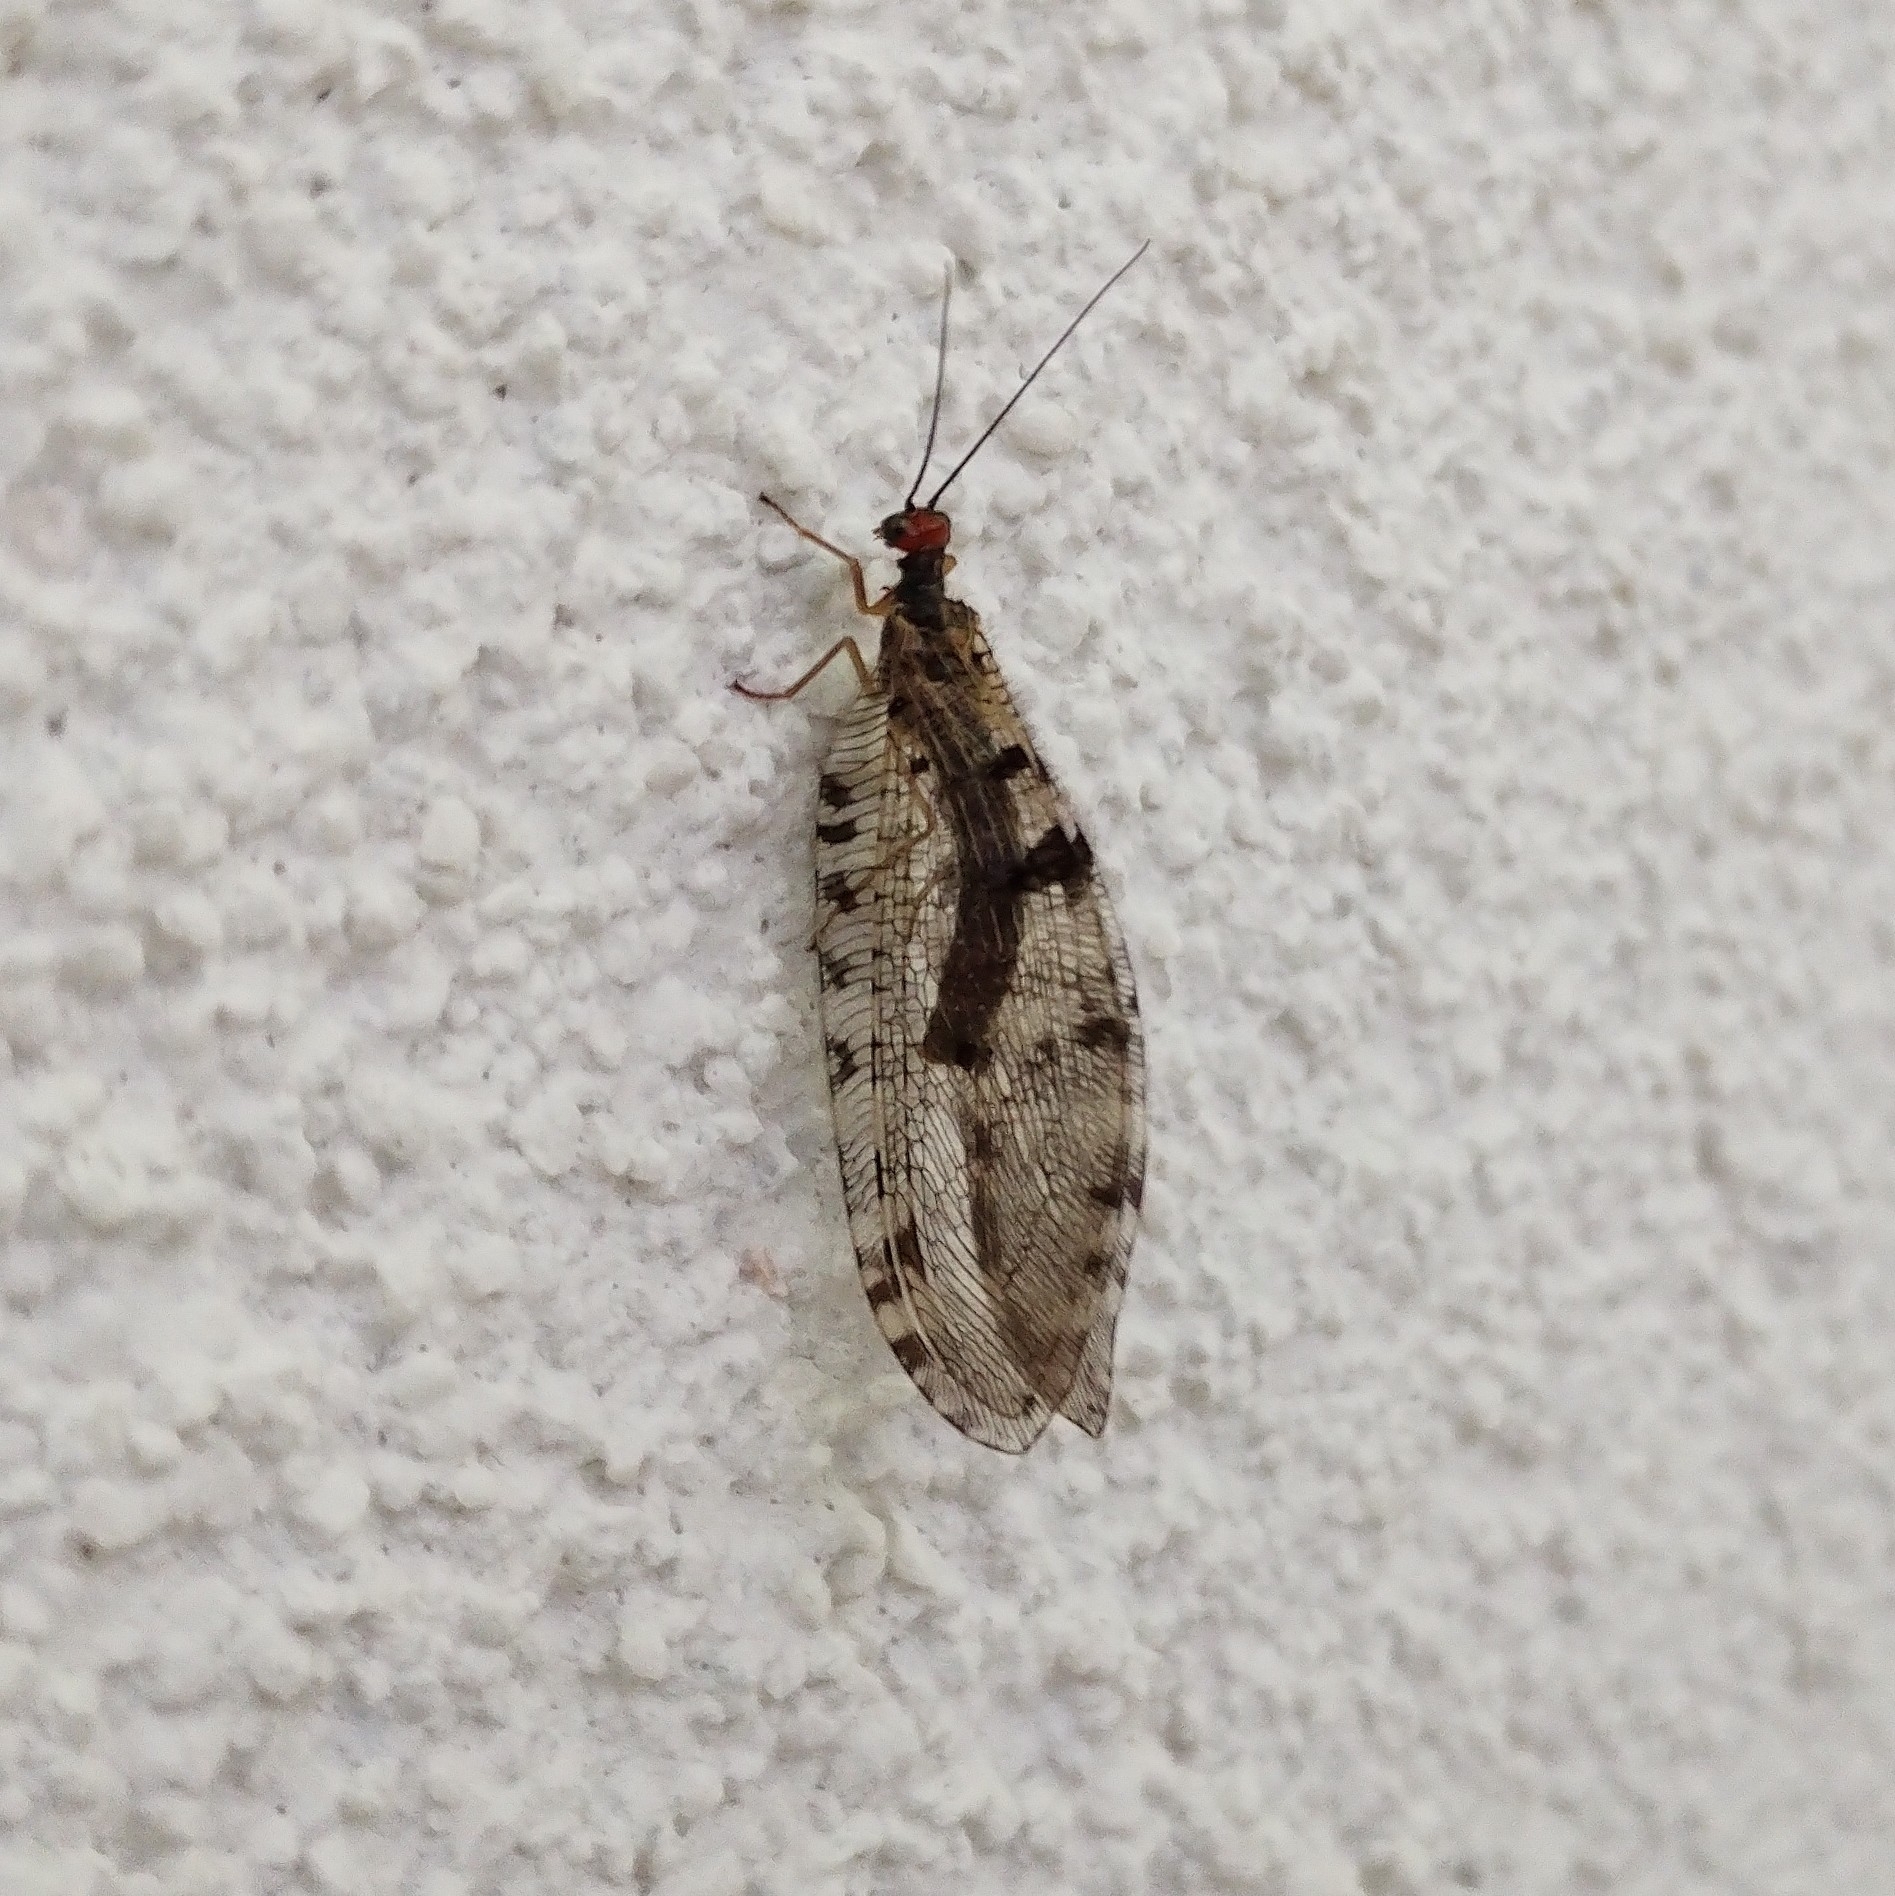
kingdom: Animalia
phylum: Arthropoda
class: Insecta
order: Neuroptera
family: Osmylidae
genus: Osmylus
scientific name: Osmylus fulvicephalus
